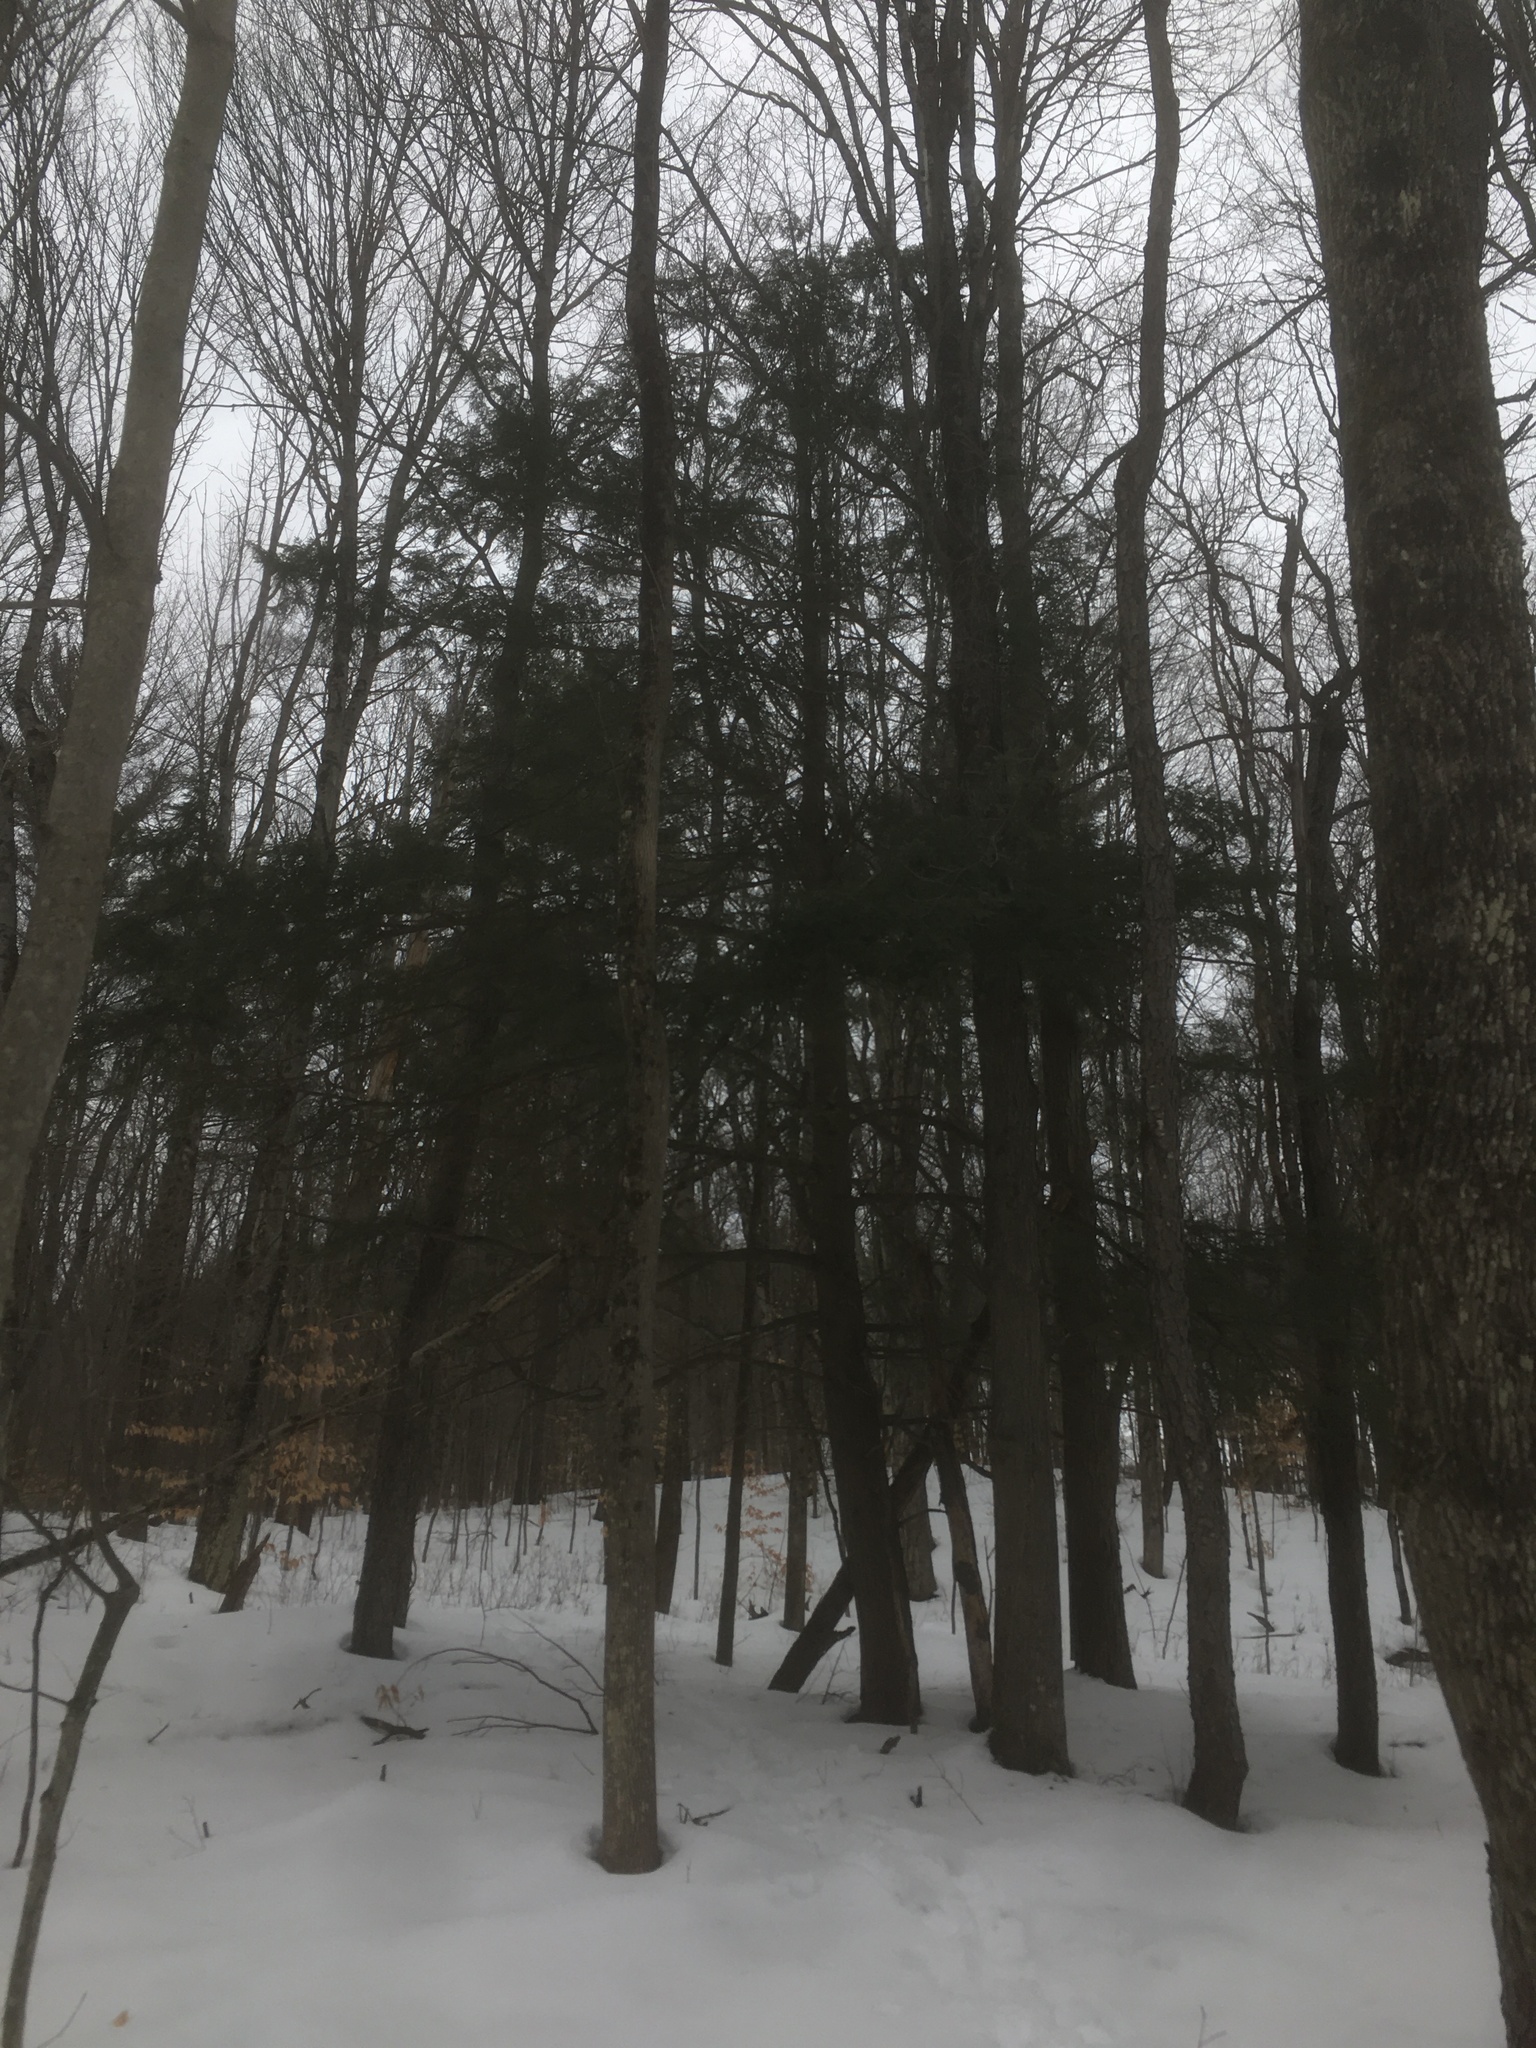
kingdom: Plantae
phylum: Tracheophyta
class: Pinopsida
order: Pinales
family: Pinaceae
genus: Tsuga
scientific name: Tsuga canadensis
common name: Eastern hemlock
